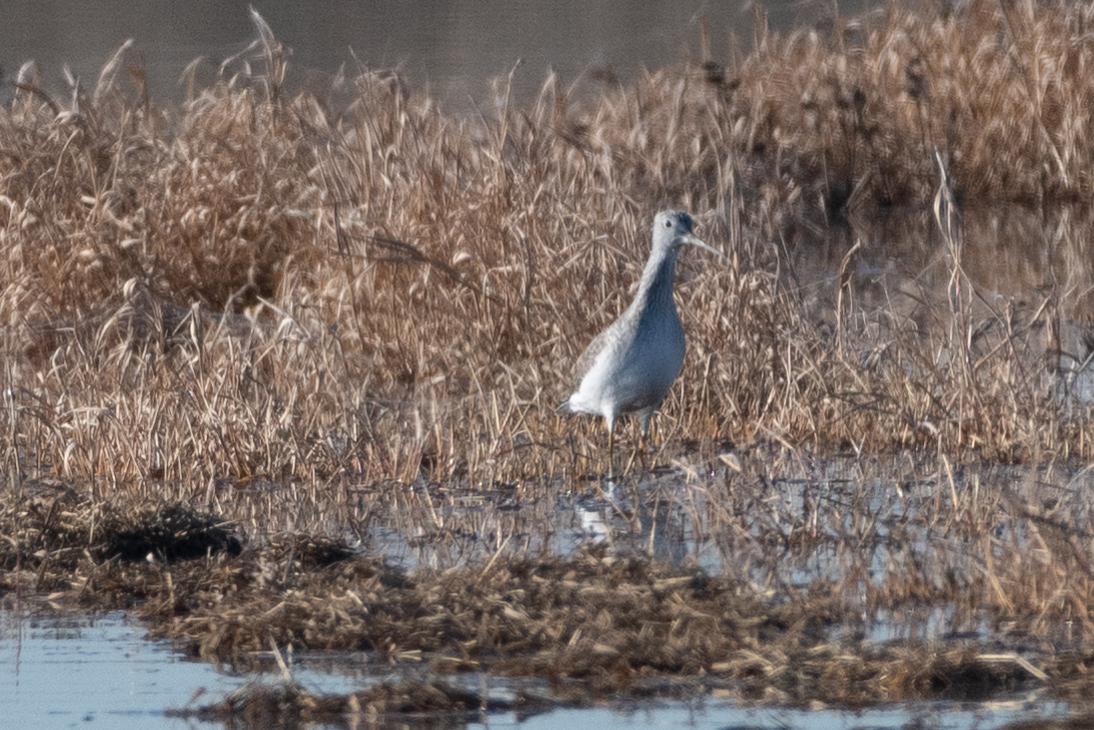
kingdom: Animalia
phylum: Chordata
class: Aves
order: Charadriiformes
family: Scolopacidae
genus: Tringa
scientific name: Tringa melanoleuca
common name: Greater yellowlegs
